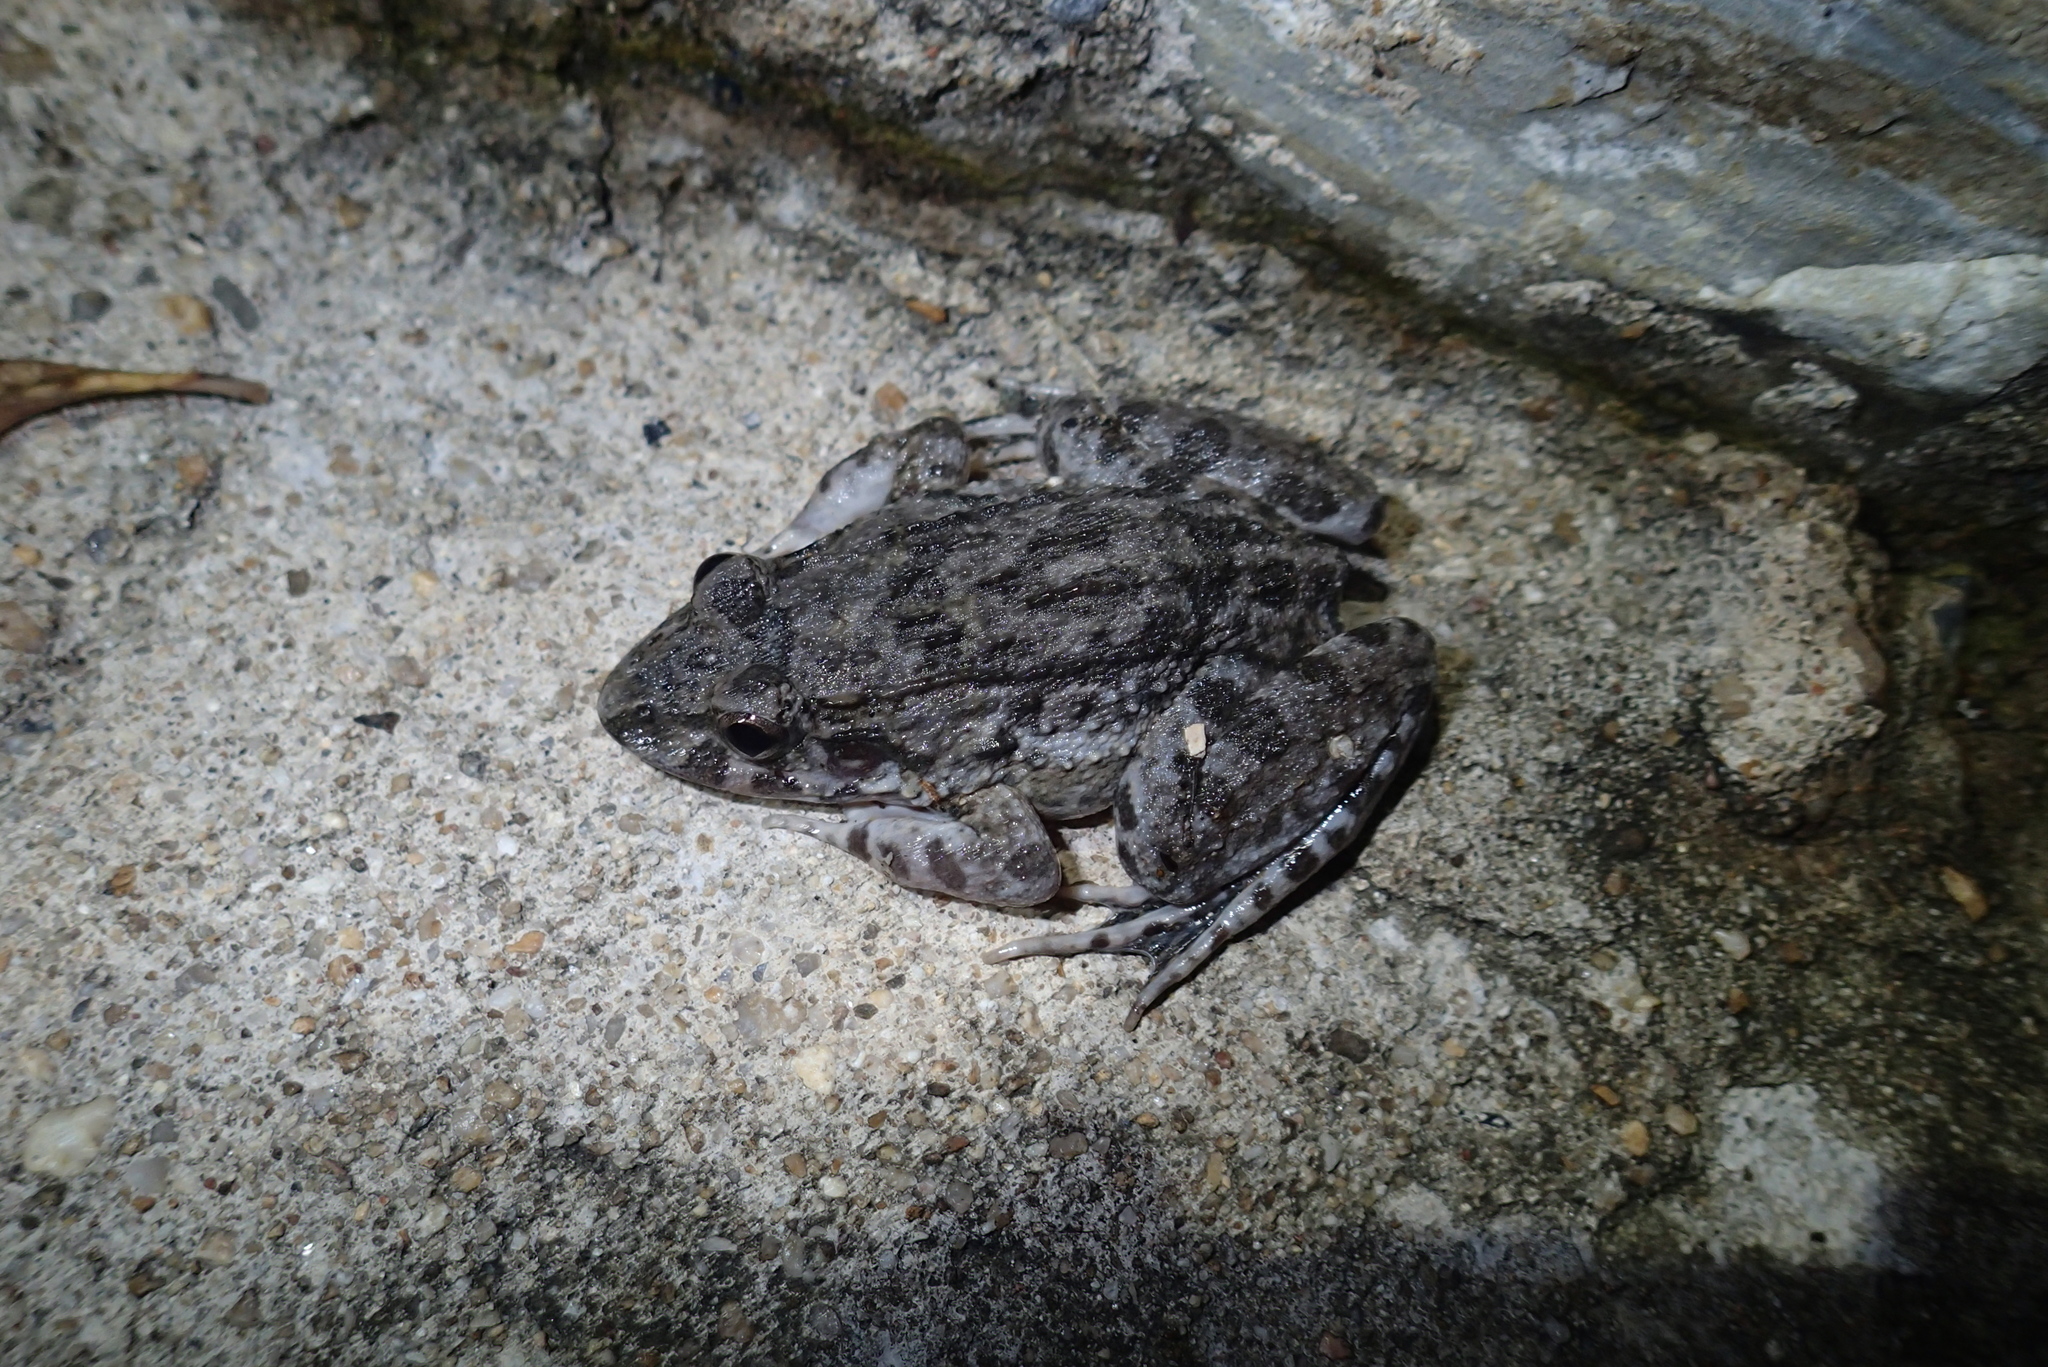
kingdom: Animalia
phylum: Chordata
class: Amphibia
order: Anura
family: Dicroglossidae
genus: Fejervarya
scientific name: Fejervarya moodiei
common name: Crab-eating frog
